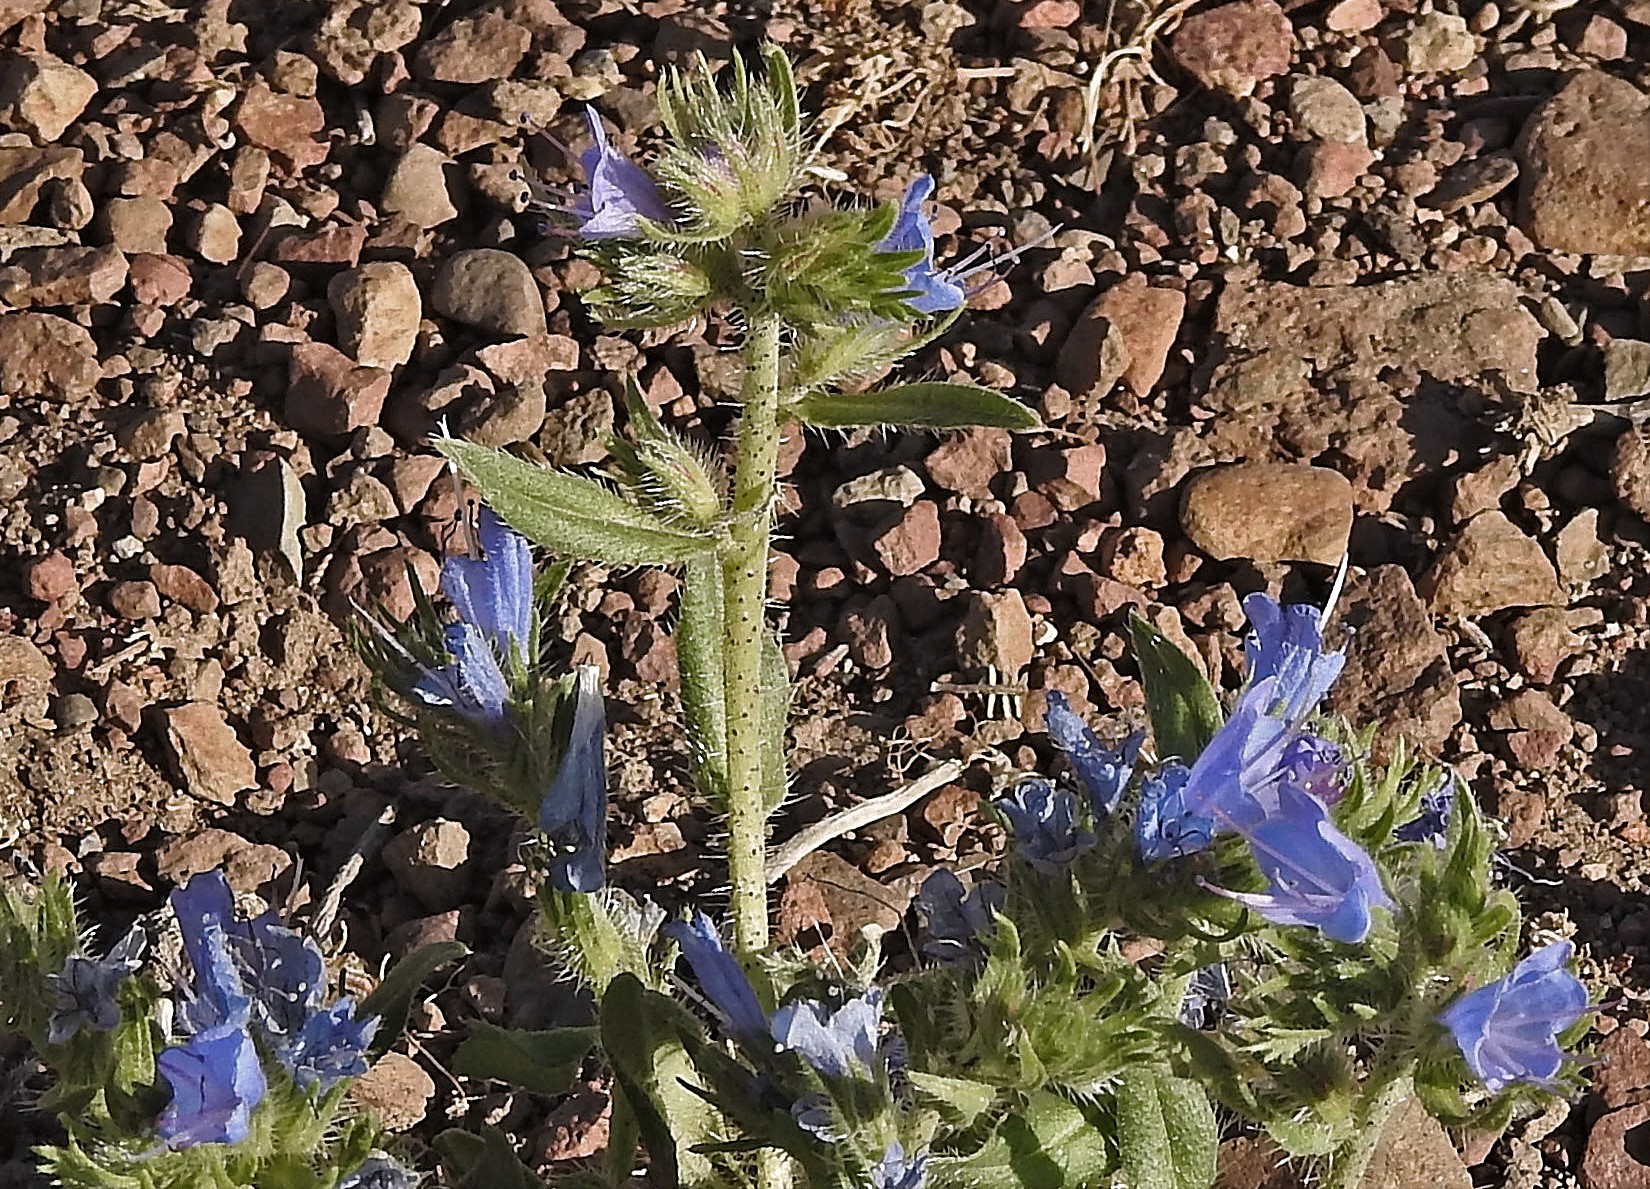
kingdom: Plantae
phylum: Tracheophyta
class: Magnoliopsida
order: Boraginales
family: Boraginaceae
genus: Echium
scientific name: Echium vulgare
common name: Common viper's bugloss
